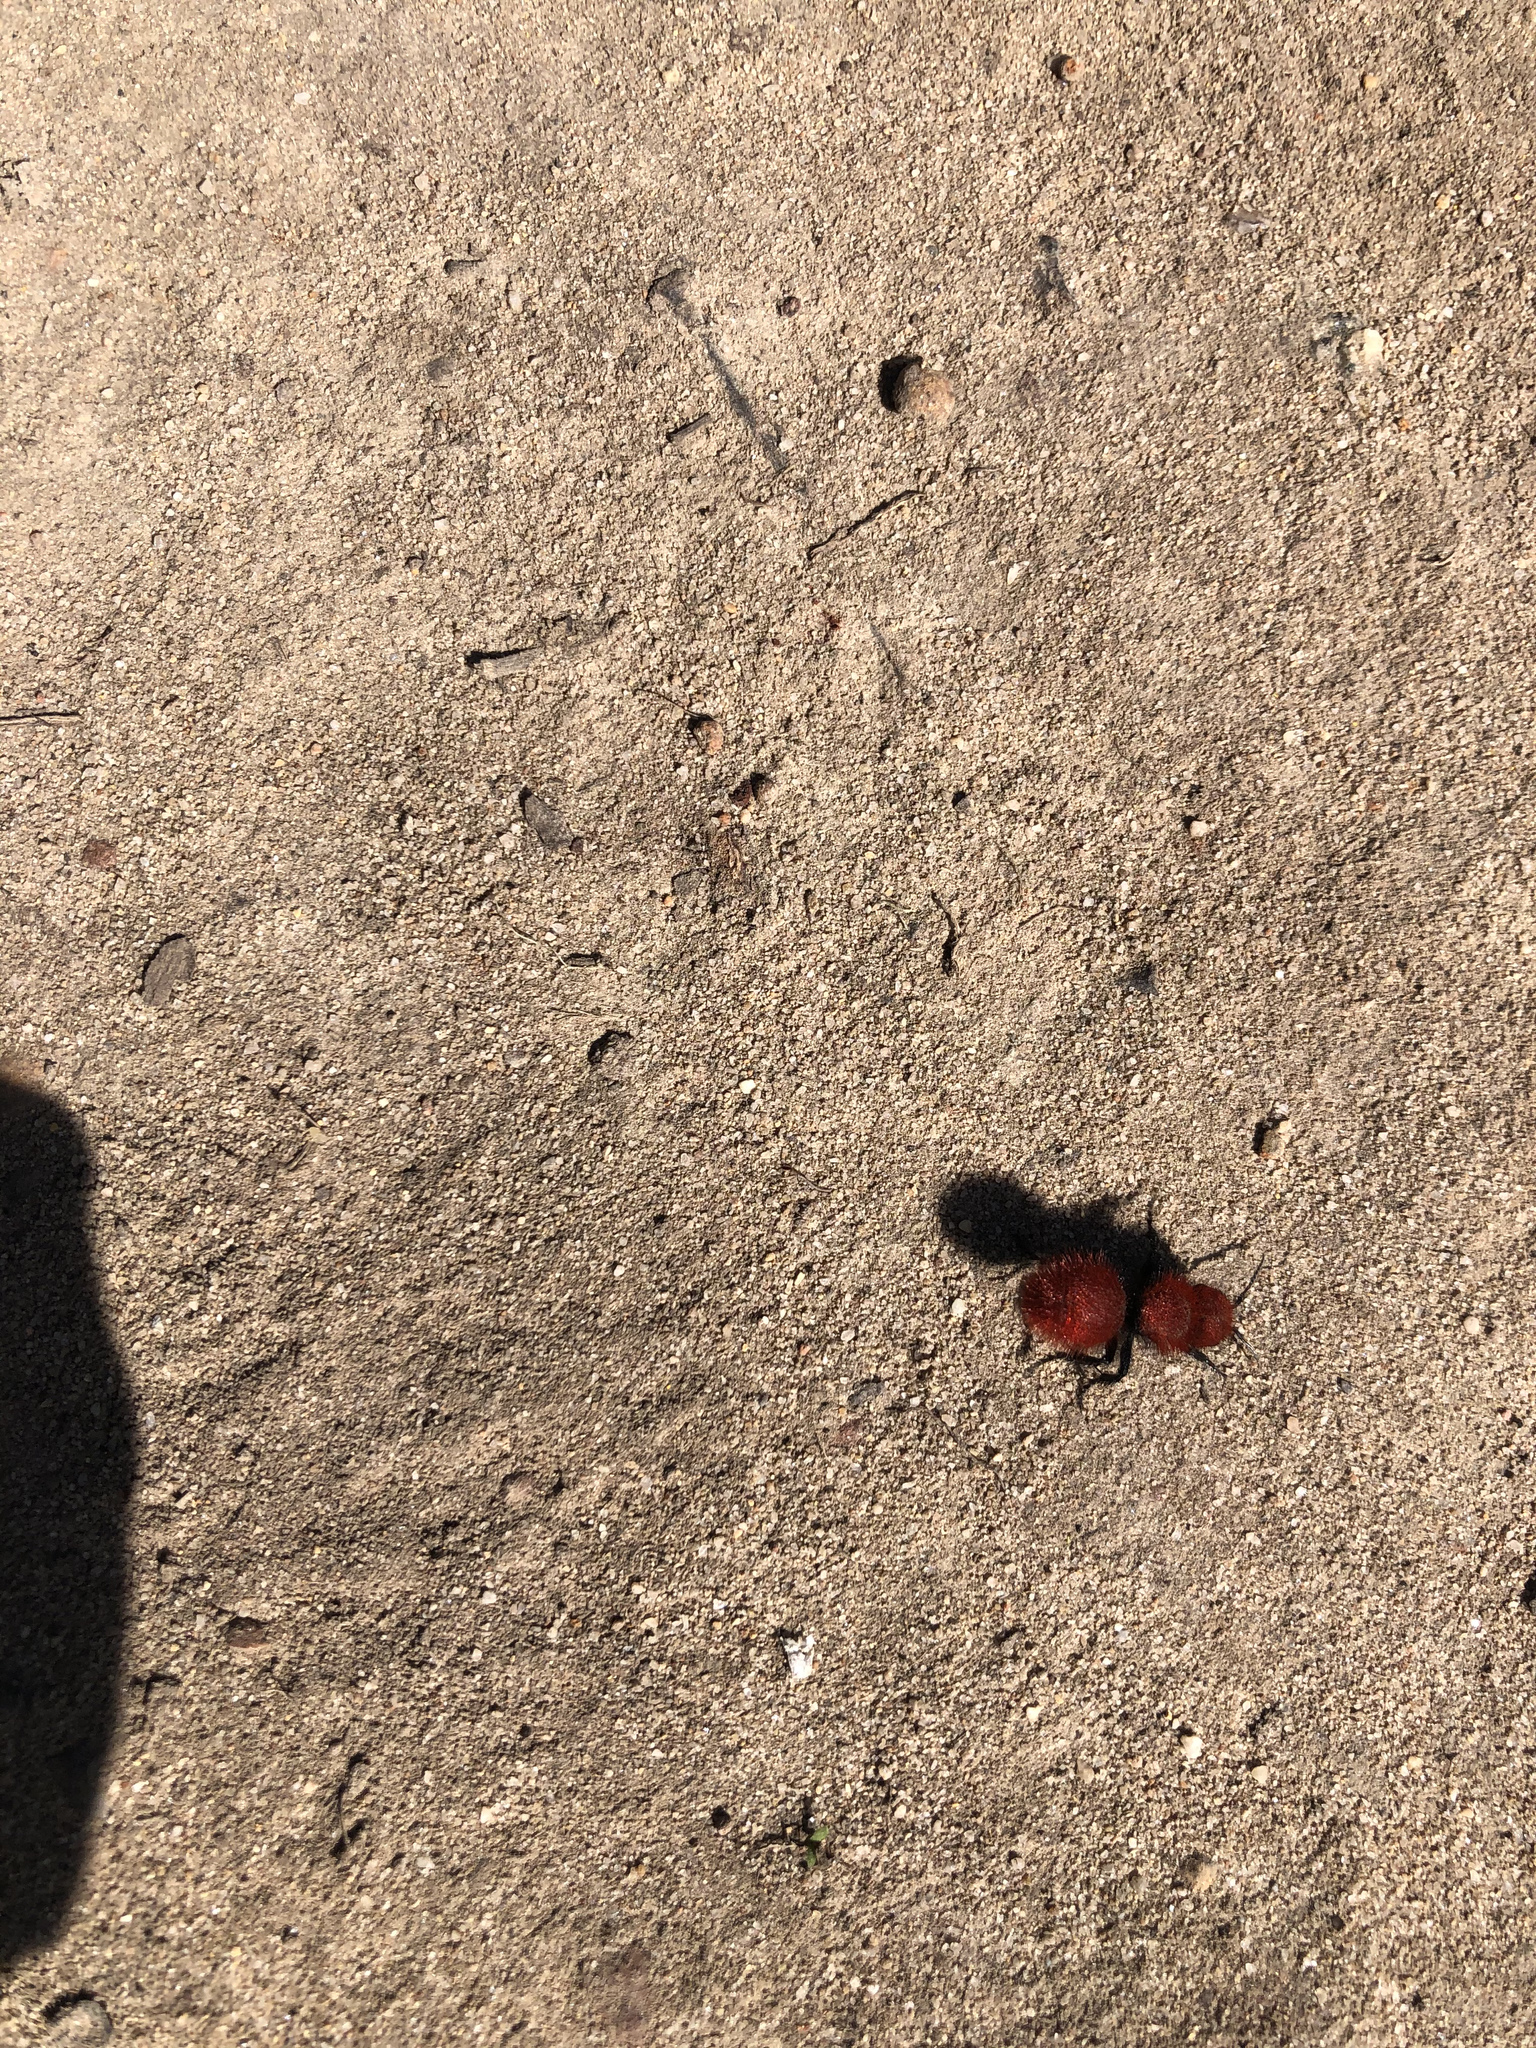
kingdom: Animalia
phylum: Arthropoda
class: Insecta
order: Hymenoptera
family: Mutillidae
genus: Dasymutilla
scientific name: Dasymutilla
